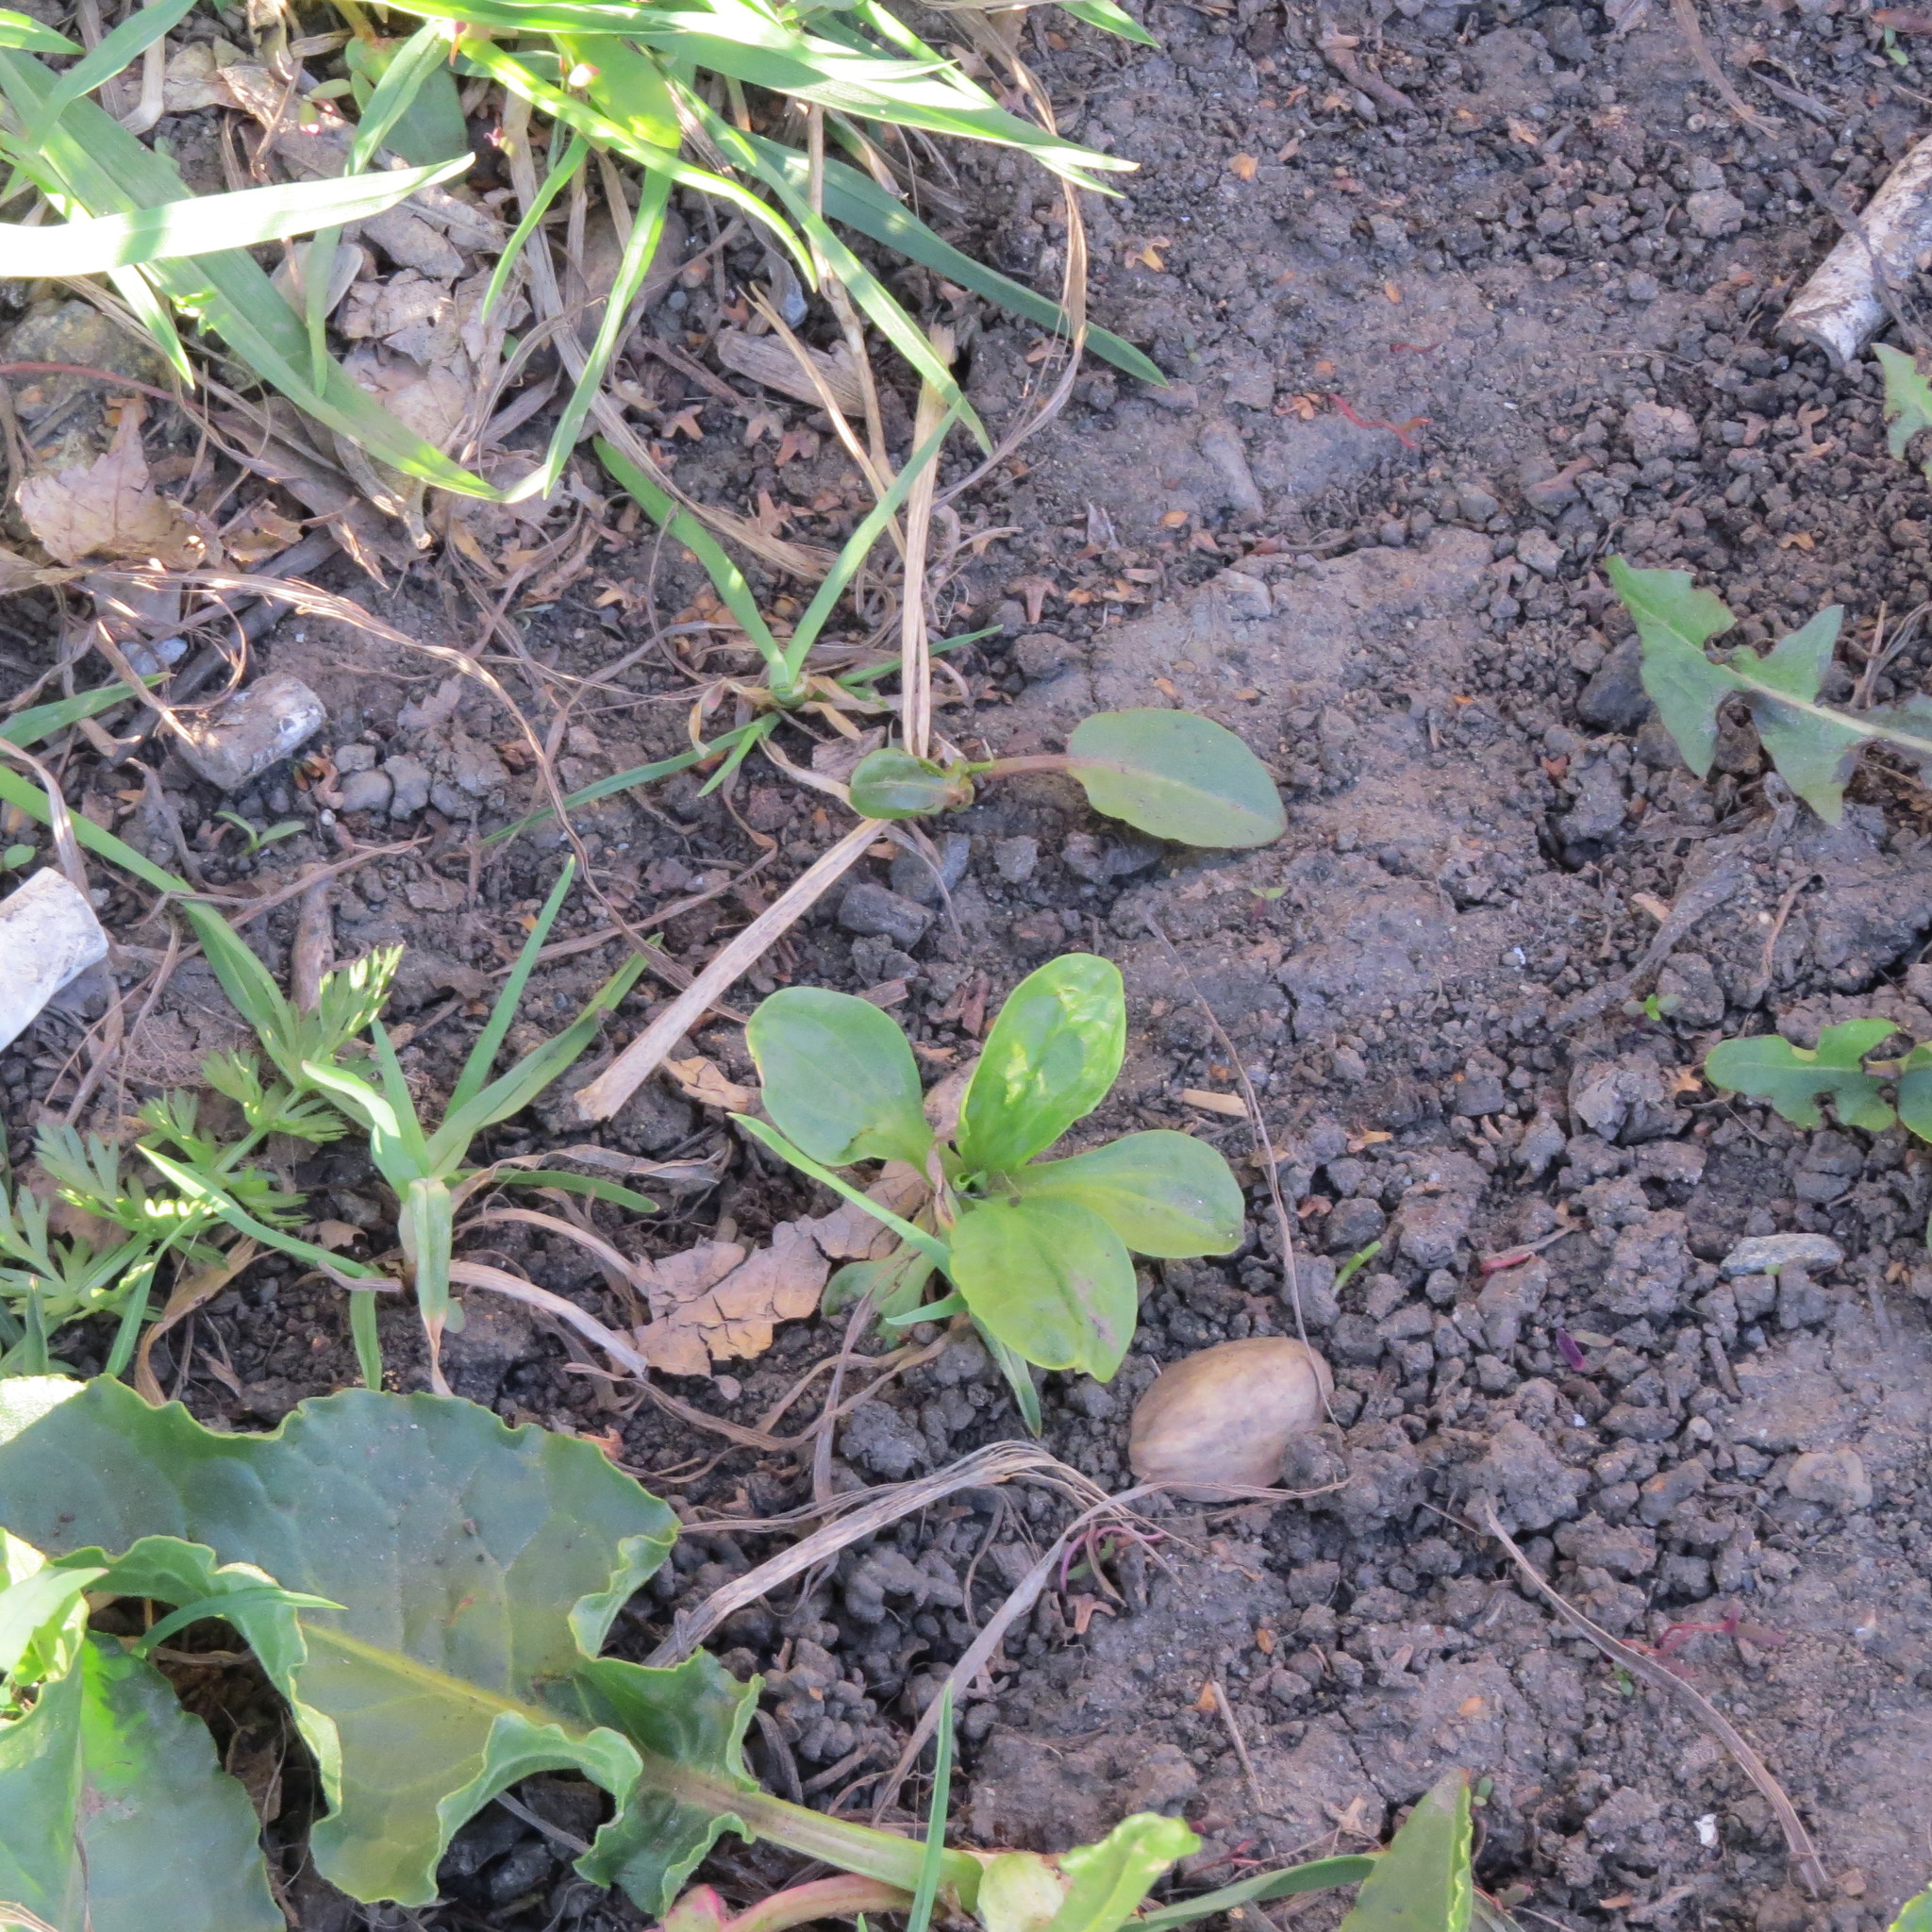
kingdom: Plantae
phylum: Tracheophyta
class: Magnoliopsida
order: Lamiales
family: Plantaginaceae
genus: Plantago
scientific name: Plantago major
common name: Common plantain
